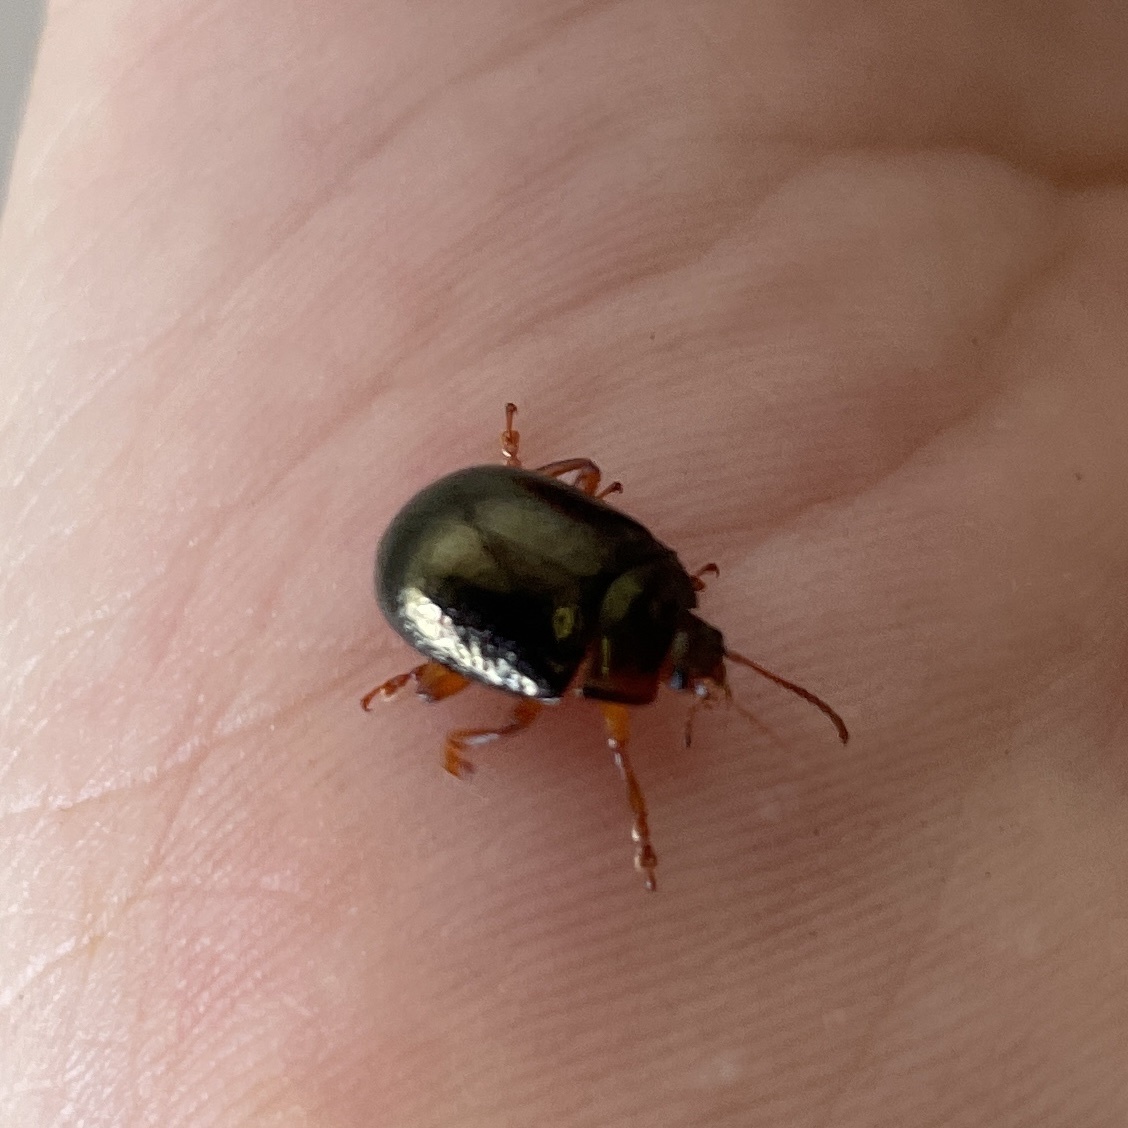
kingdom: Animalia
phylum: Arthropoda
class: Insecta
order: Coleoptera
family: Chrysomelidae
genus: Chrysolina
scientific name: Chrysolina bankii
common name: Leaf beetle
